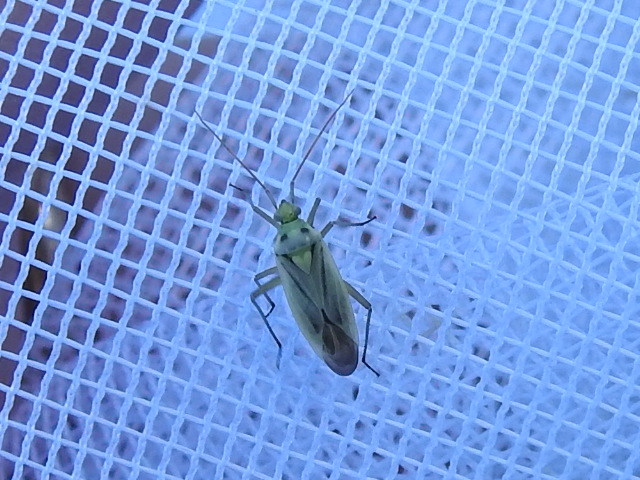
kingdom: Animalia
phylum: Arthropoda
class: Insecta
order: Hemiptera
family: Miridae
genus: Stenotus
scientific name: Stenotus binotatus
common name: Plant bug
